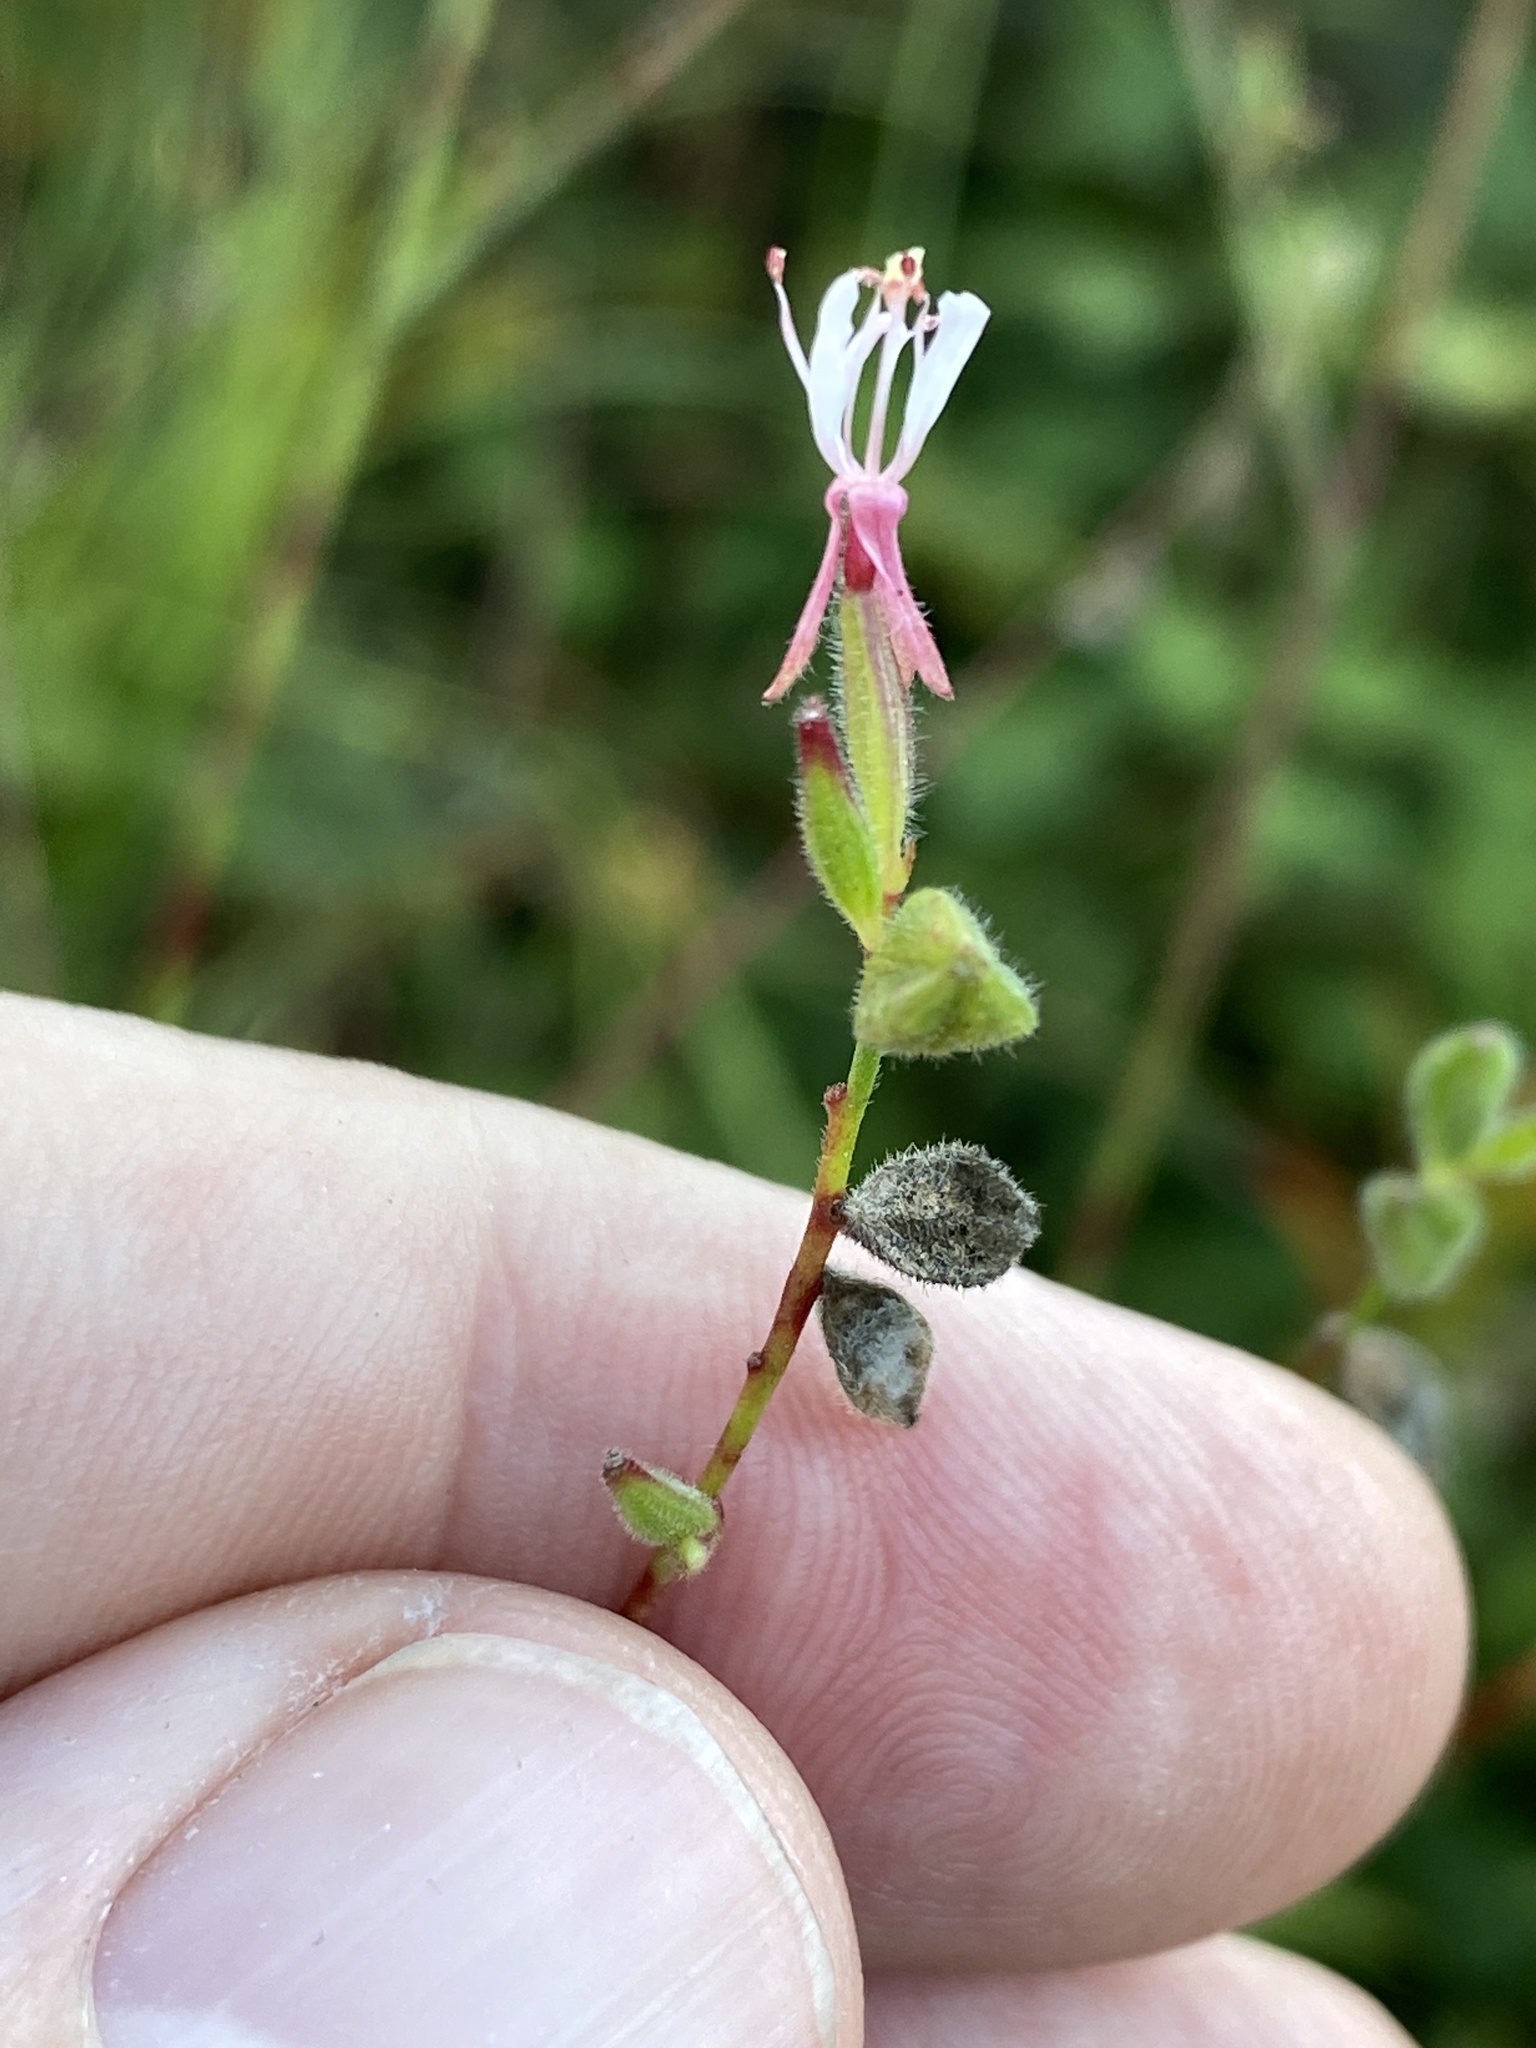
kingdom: Plantae
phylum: Tracheophyta
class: Magnoliopsida
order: Myrtales
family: Onagraceae
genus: Oenothera
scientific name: Oenothera simulans
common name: Southern beeblossom
